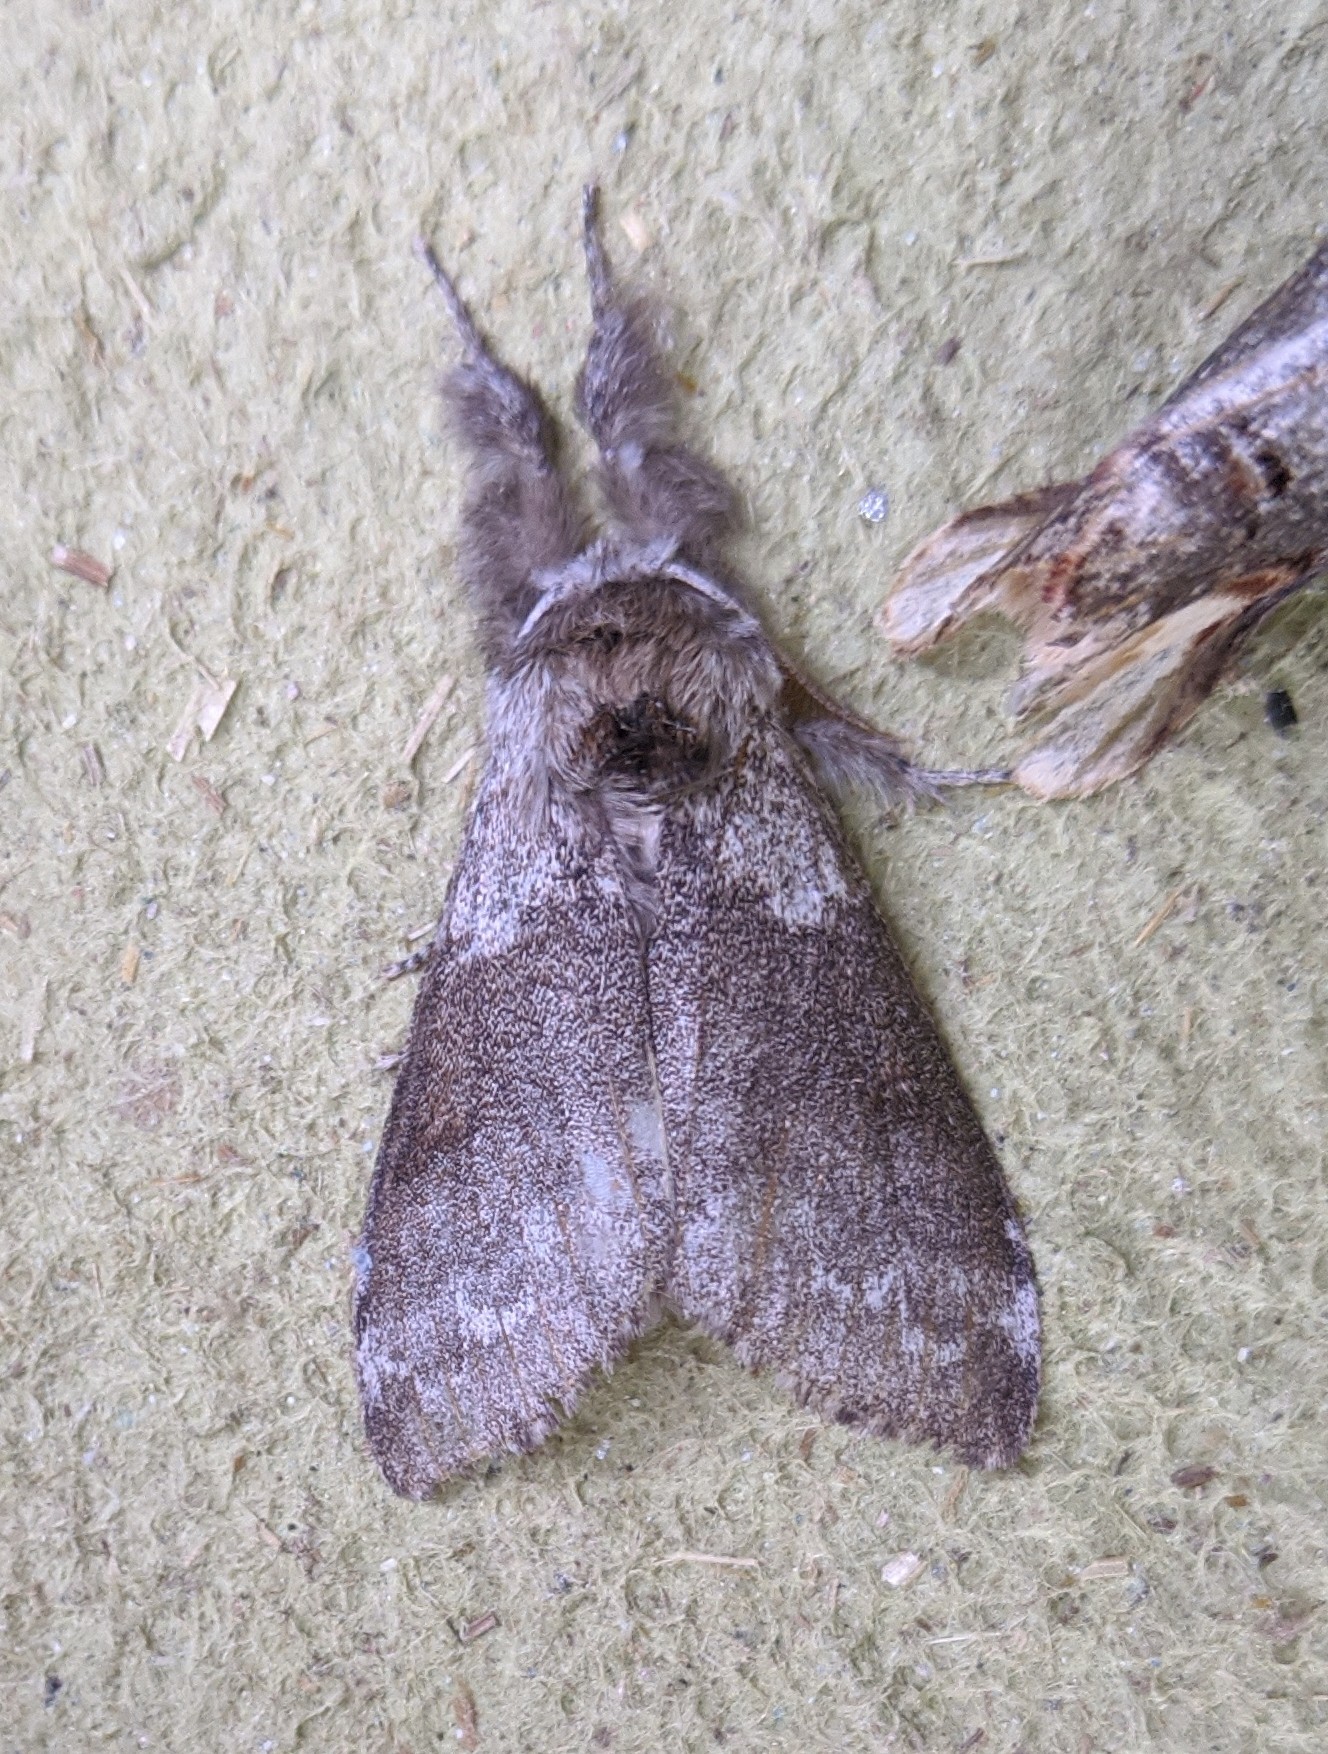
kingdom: Animalia
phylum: Arthropoda
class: Insecta
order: Lepidoptera
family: Erebidae
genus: Calliteara
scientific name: Calliteara pudibunda
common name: Pale tussock
